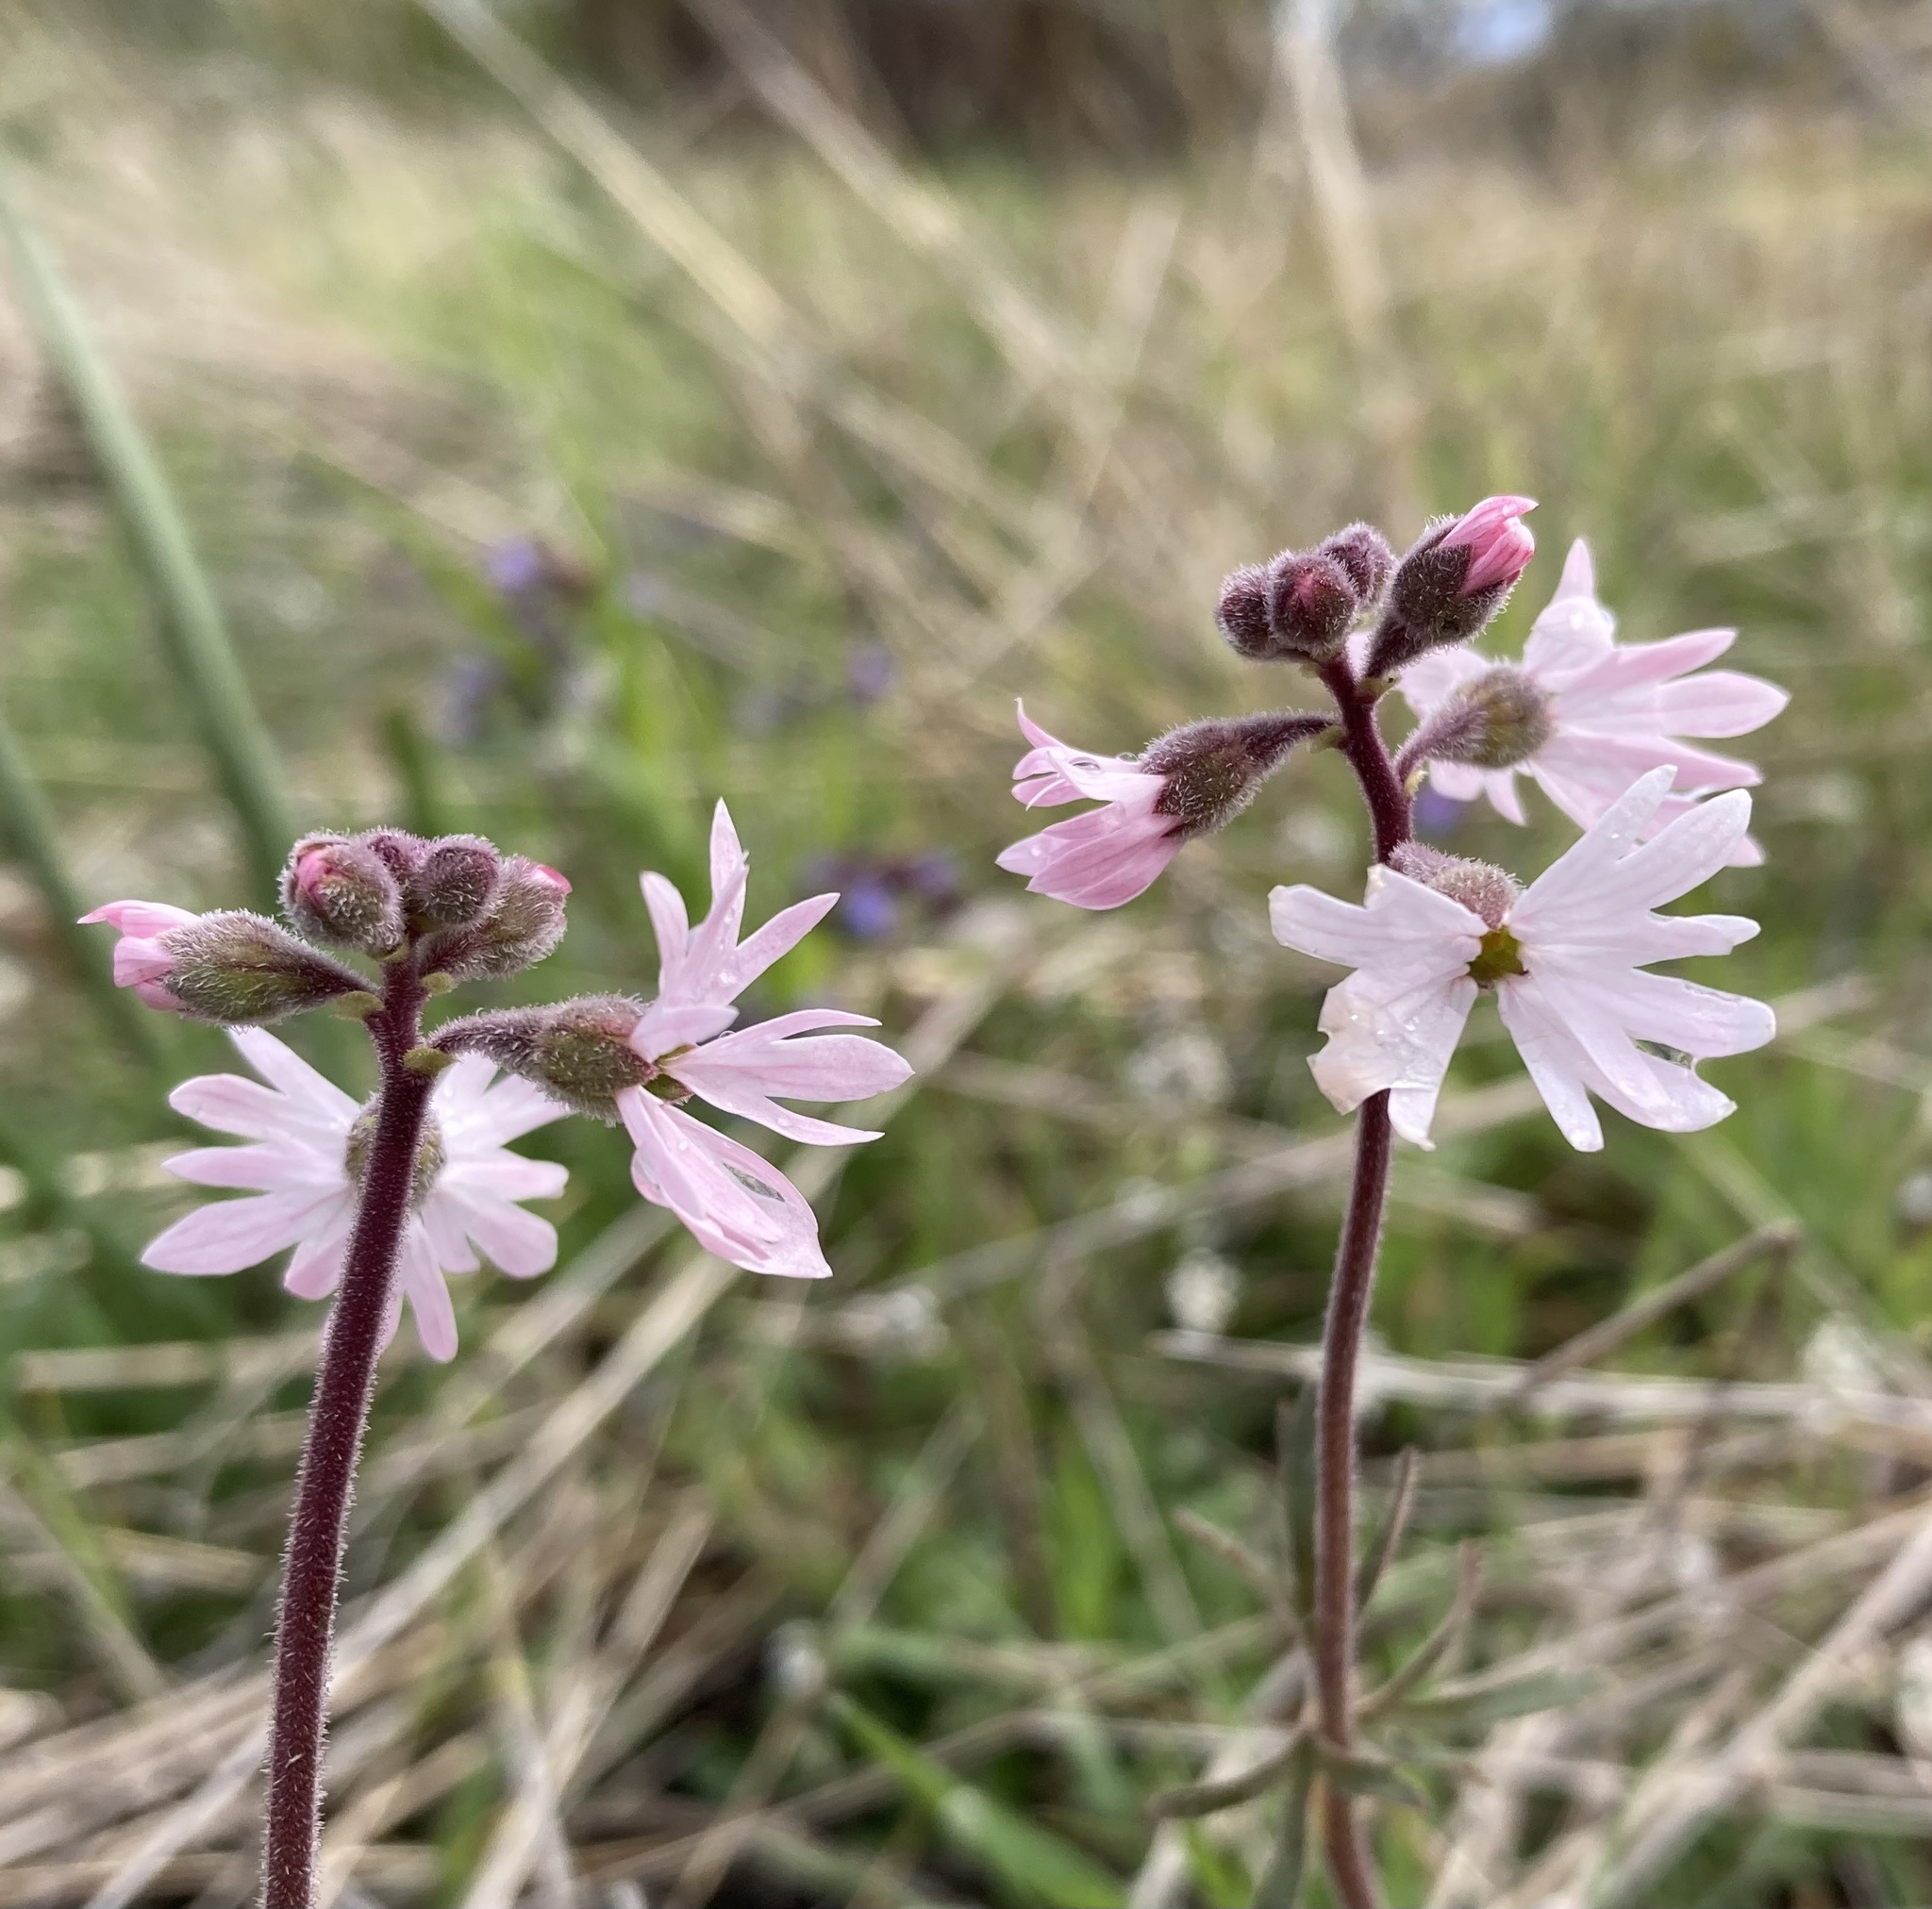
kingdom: Plantae
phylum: Tracheophyta
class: Magnoliopsida
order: Saxifragales
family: Saxifragaceae
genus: Lithophragma
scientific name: Lithophragma parviflorum
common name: Small-flowered fringe-cup
